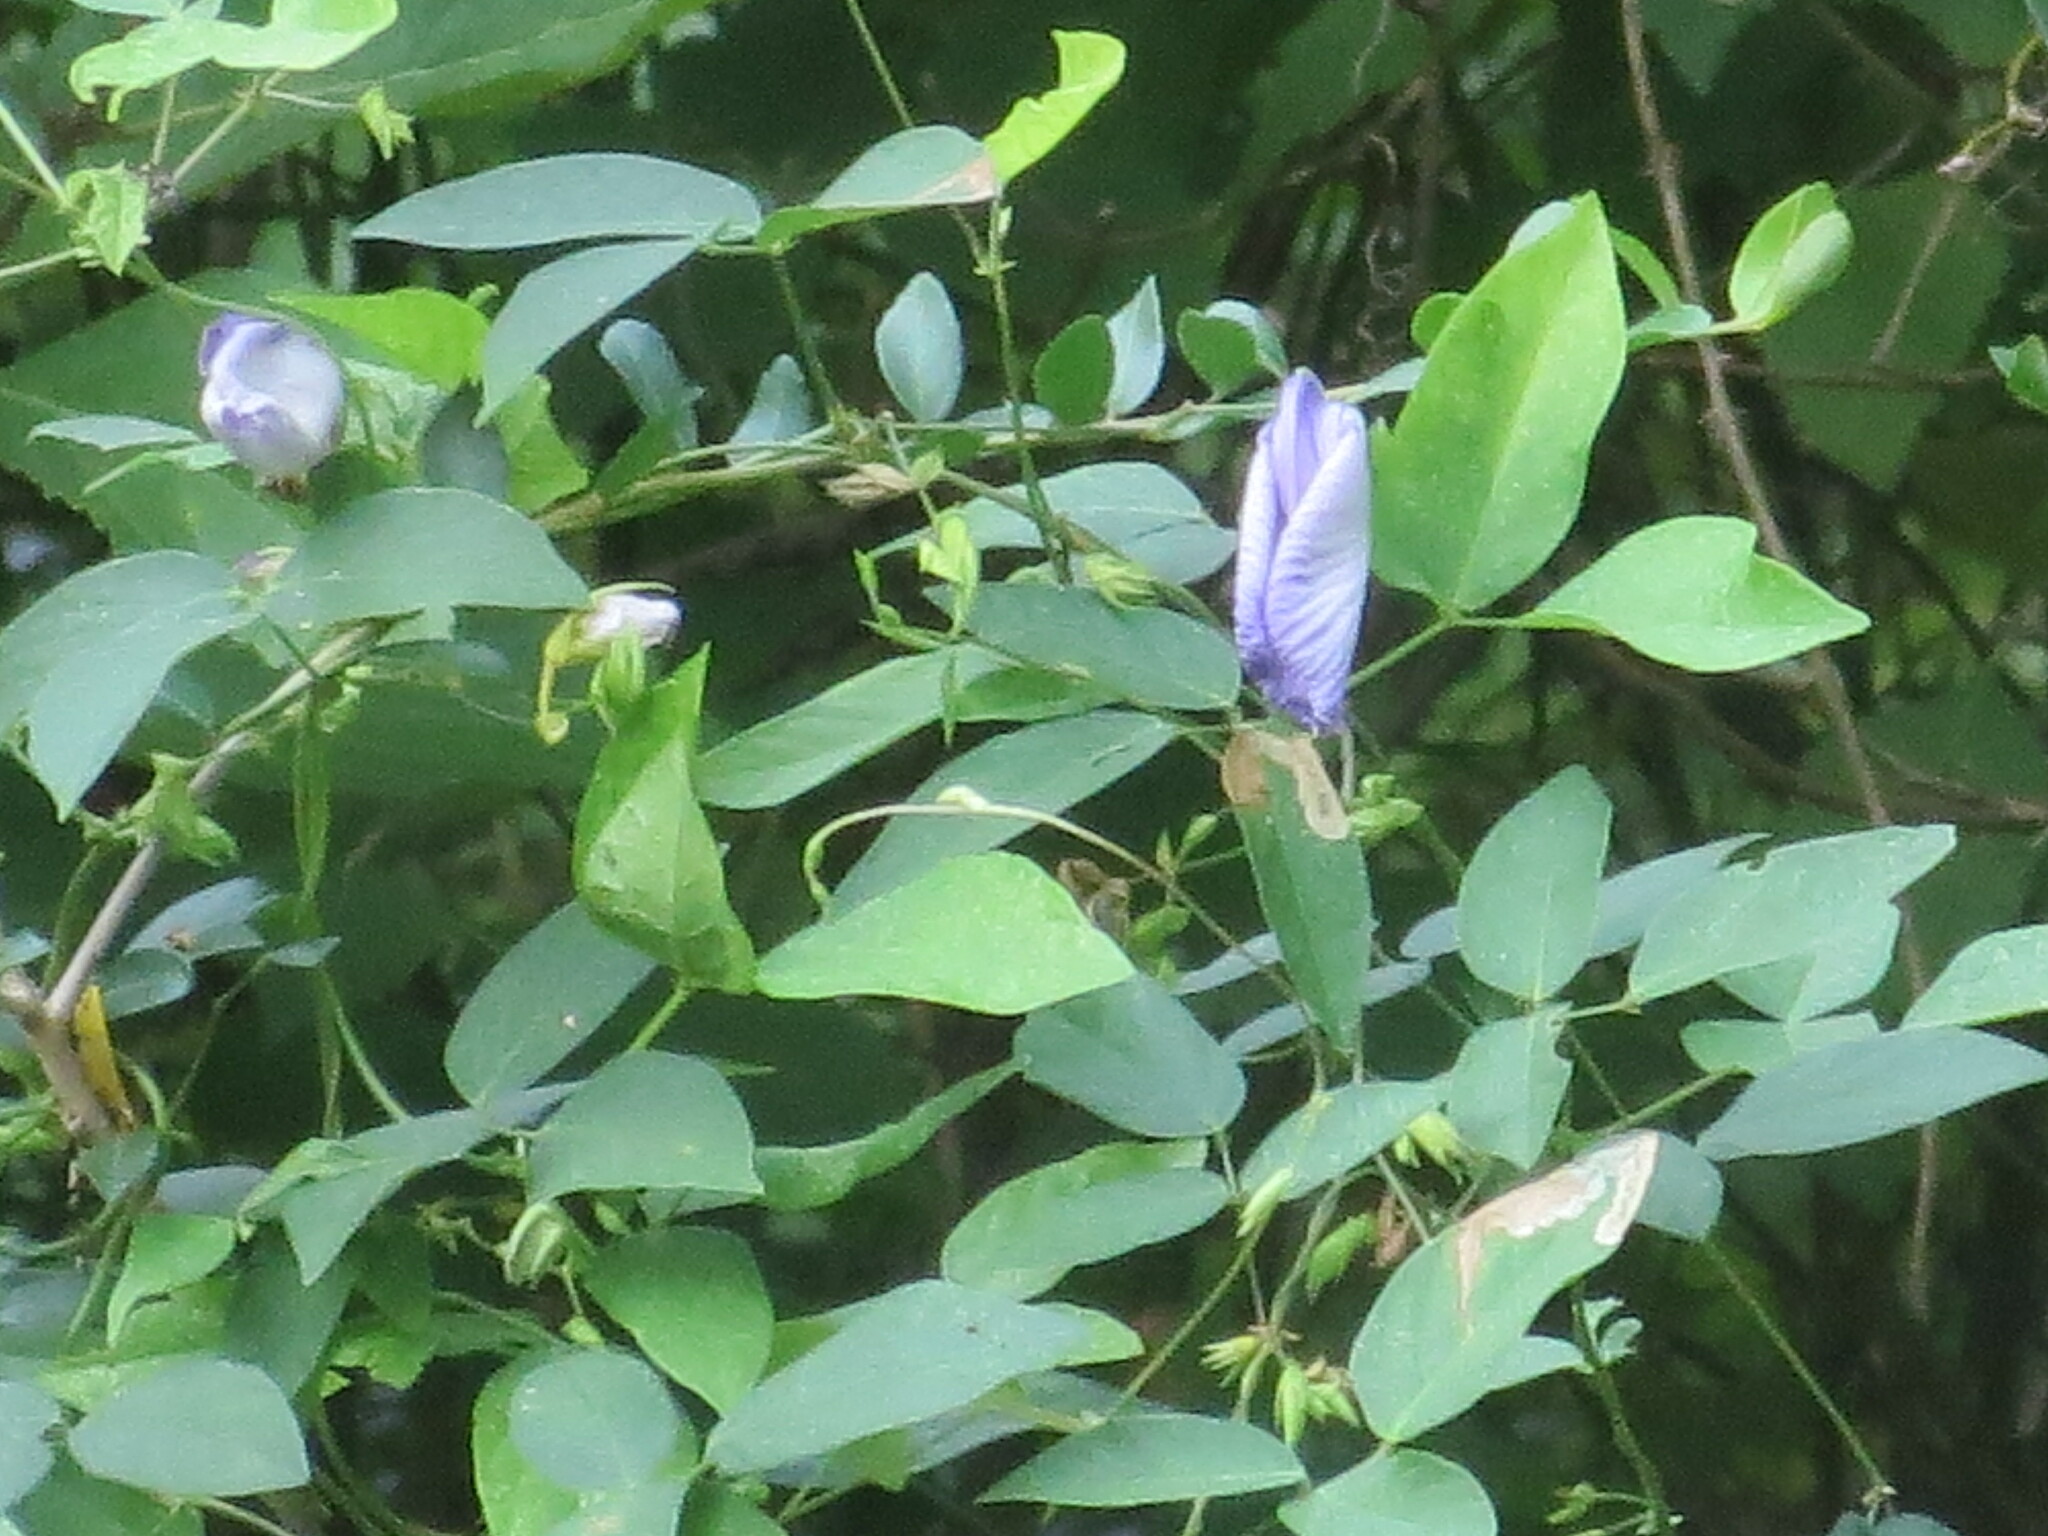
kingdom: Plantae
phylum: Tracheophyta
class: Magnoliopsida
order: Fabales
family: Fabaceae
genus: Centrosema
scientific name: Centrosema virginianum
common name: Butterfly-pea
